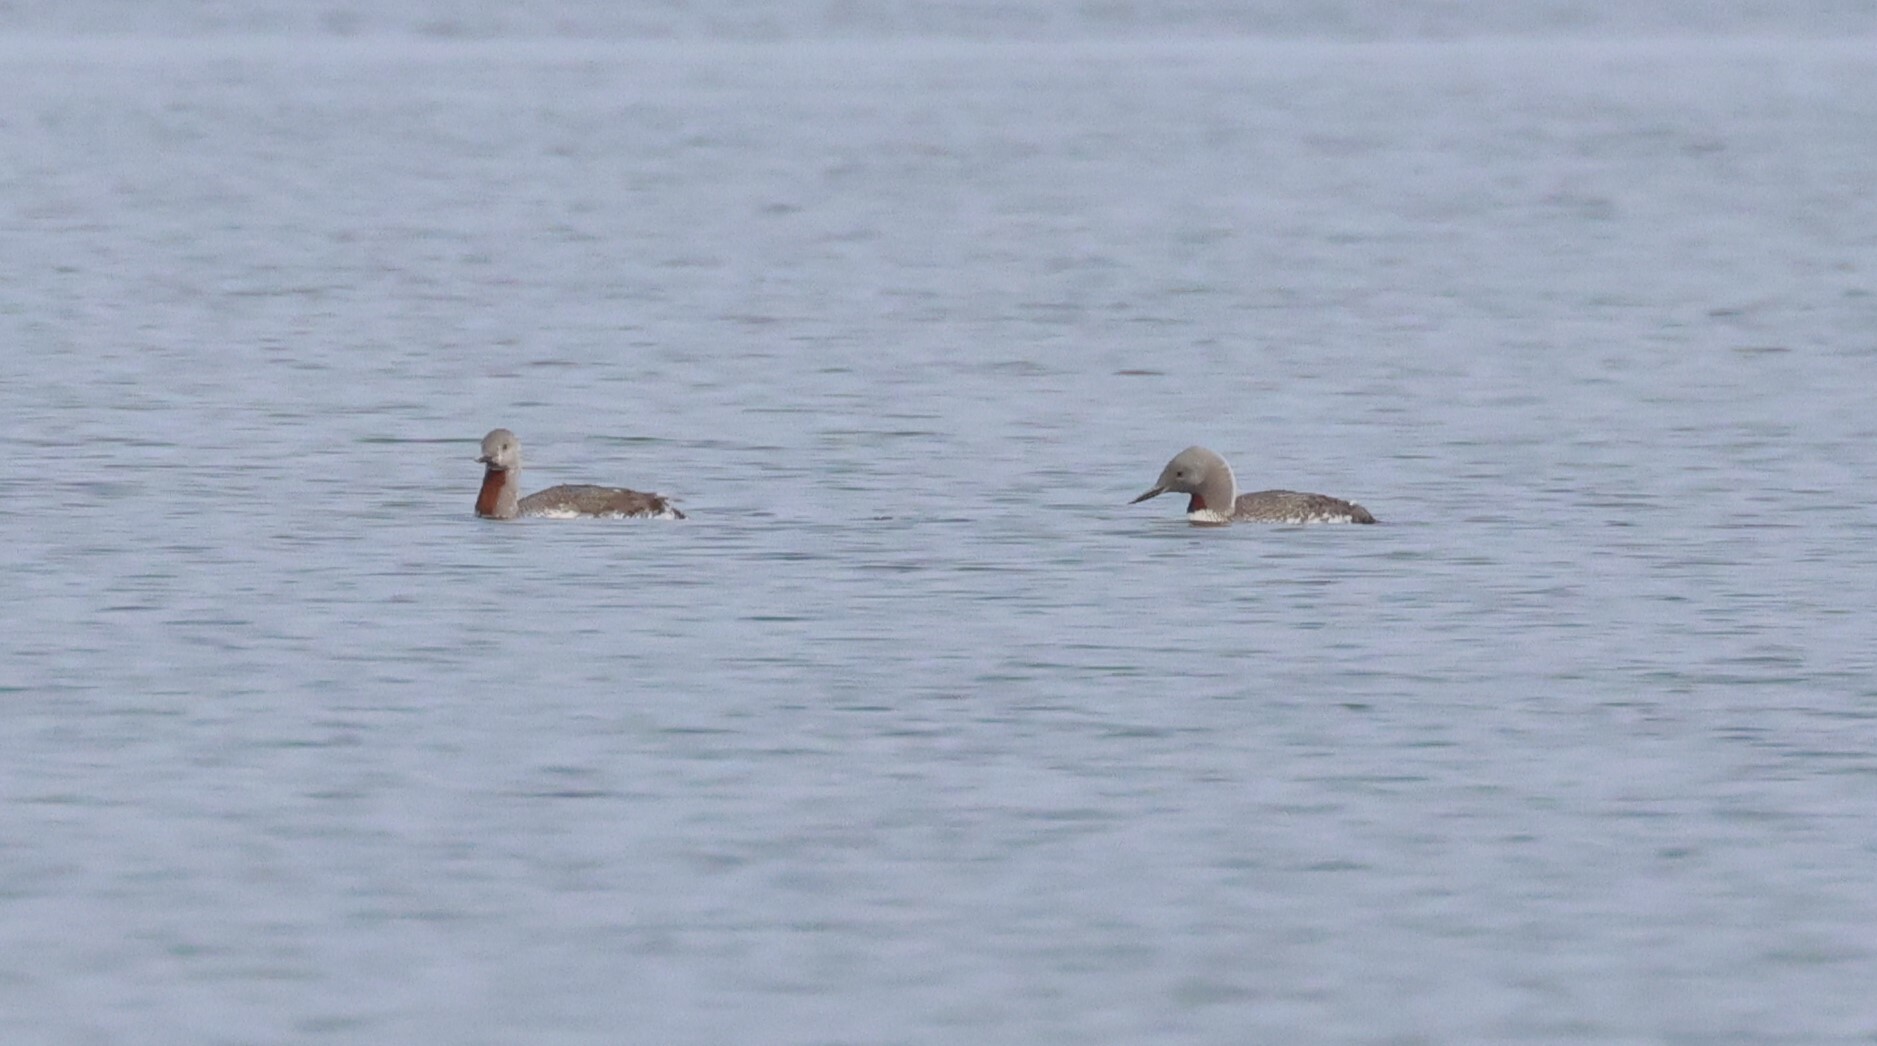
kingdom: Animalia
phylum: Chordata
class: Aves
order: Gaviiformes
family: Gaviidae
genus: Gavia
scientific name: Gavia stellata
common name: Red-throated loon
